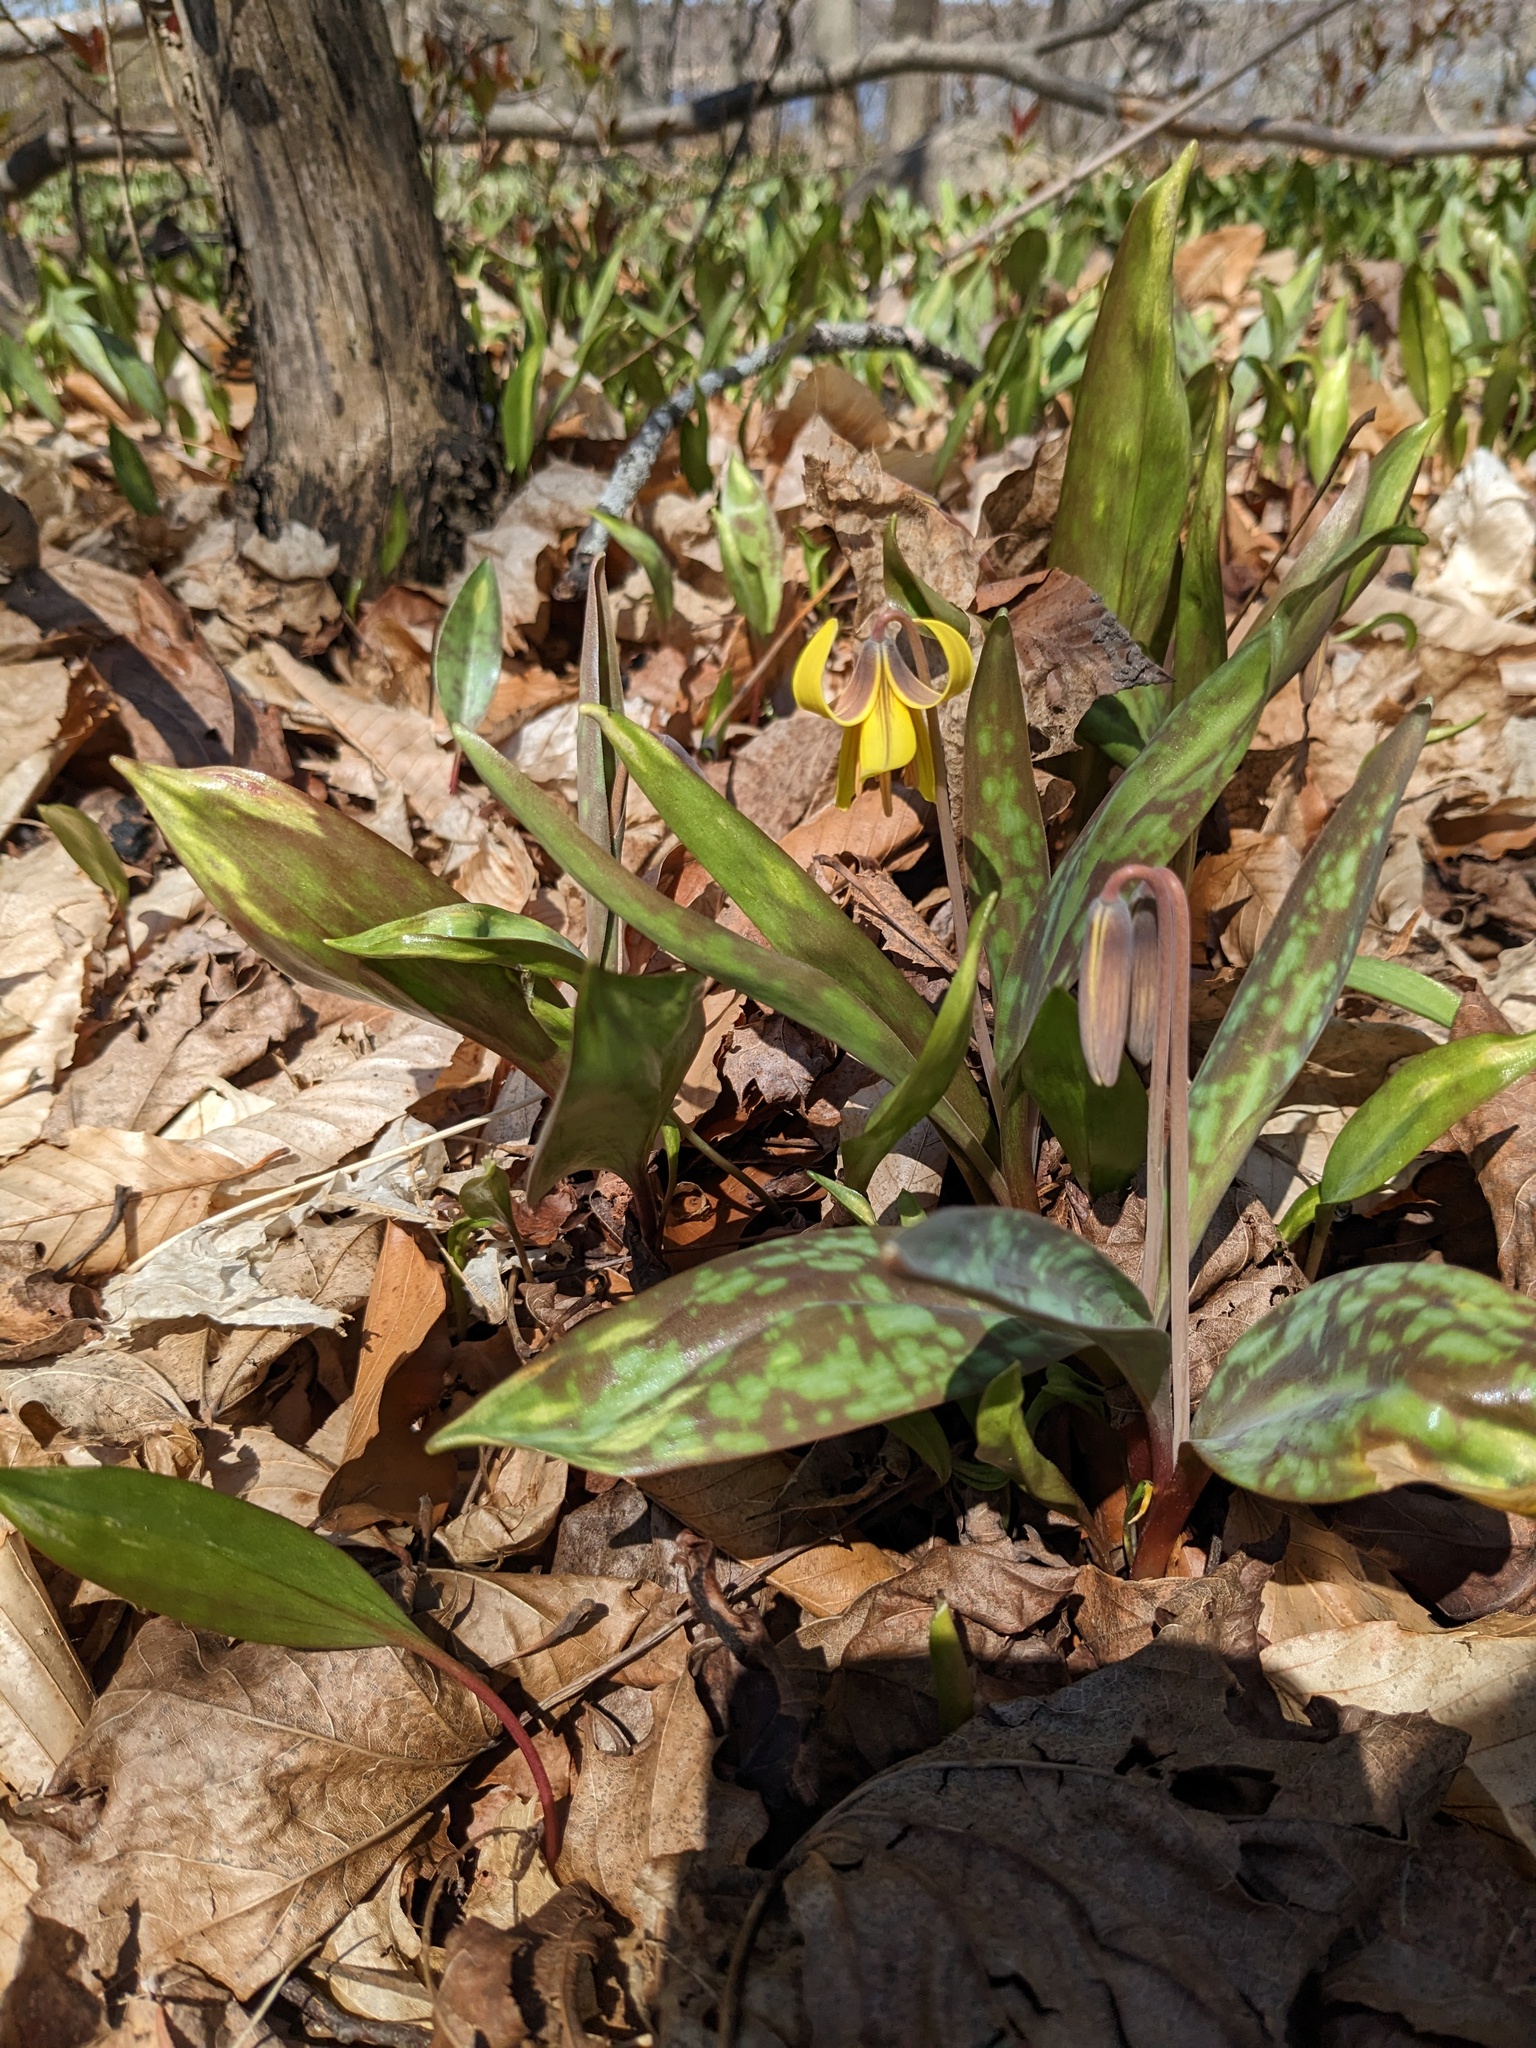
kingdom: Plantae
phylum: Tracheophyta
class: Liliopsida
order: Liliales
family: Liliaceae
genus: Erythronium
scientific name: Erythronium americanum
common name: Yellow adder's-tongue
